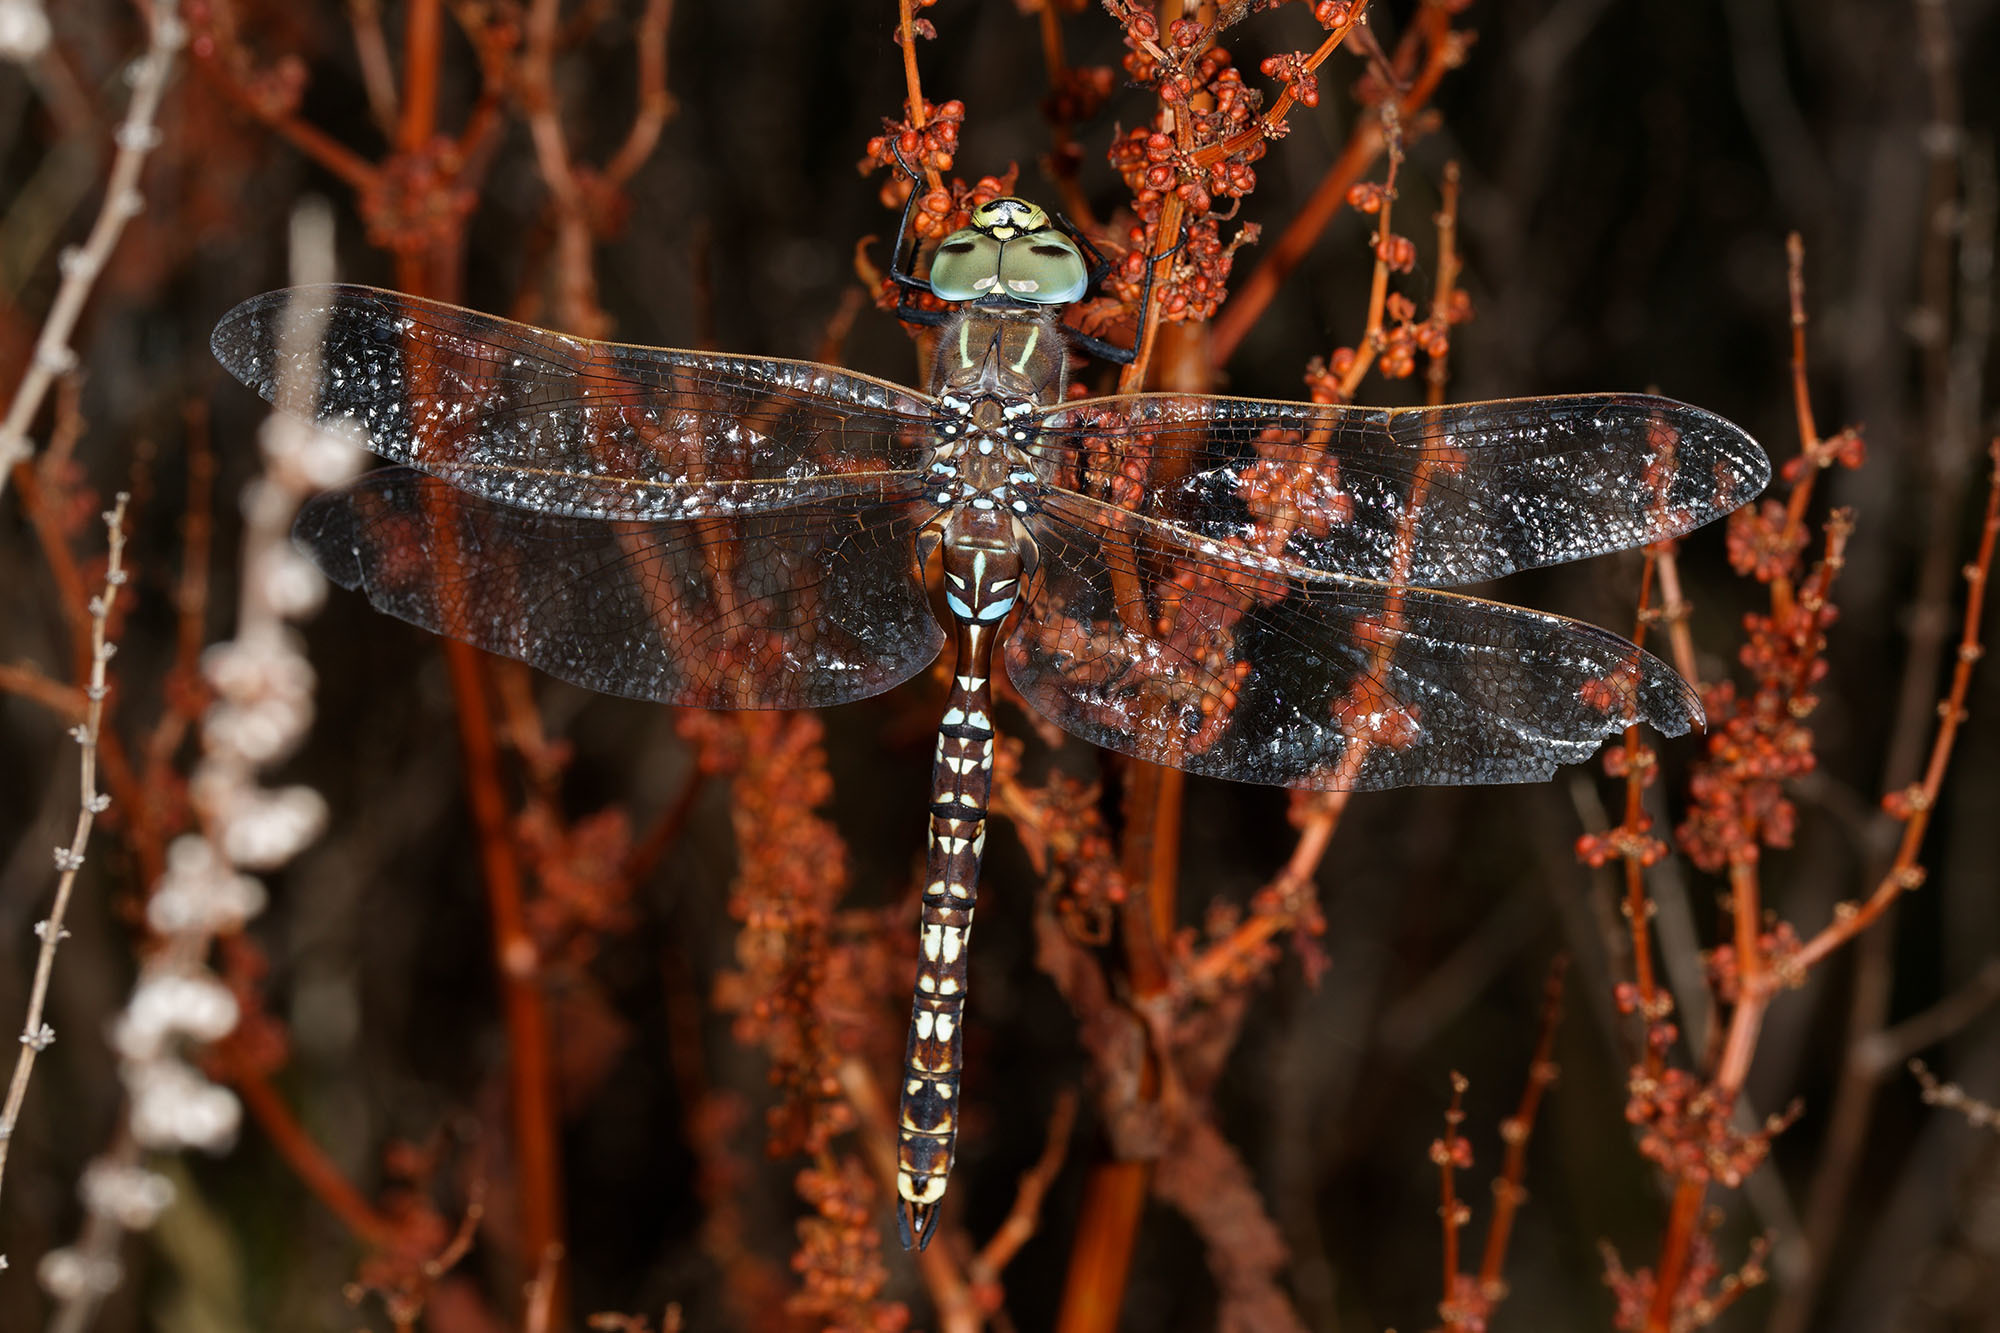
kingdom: Animalia
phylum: Arthropoda
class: Insecta
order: Odonata
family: Aeshnidae
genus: Aeshna
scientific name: Aeshna brevistyla
